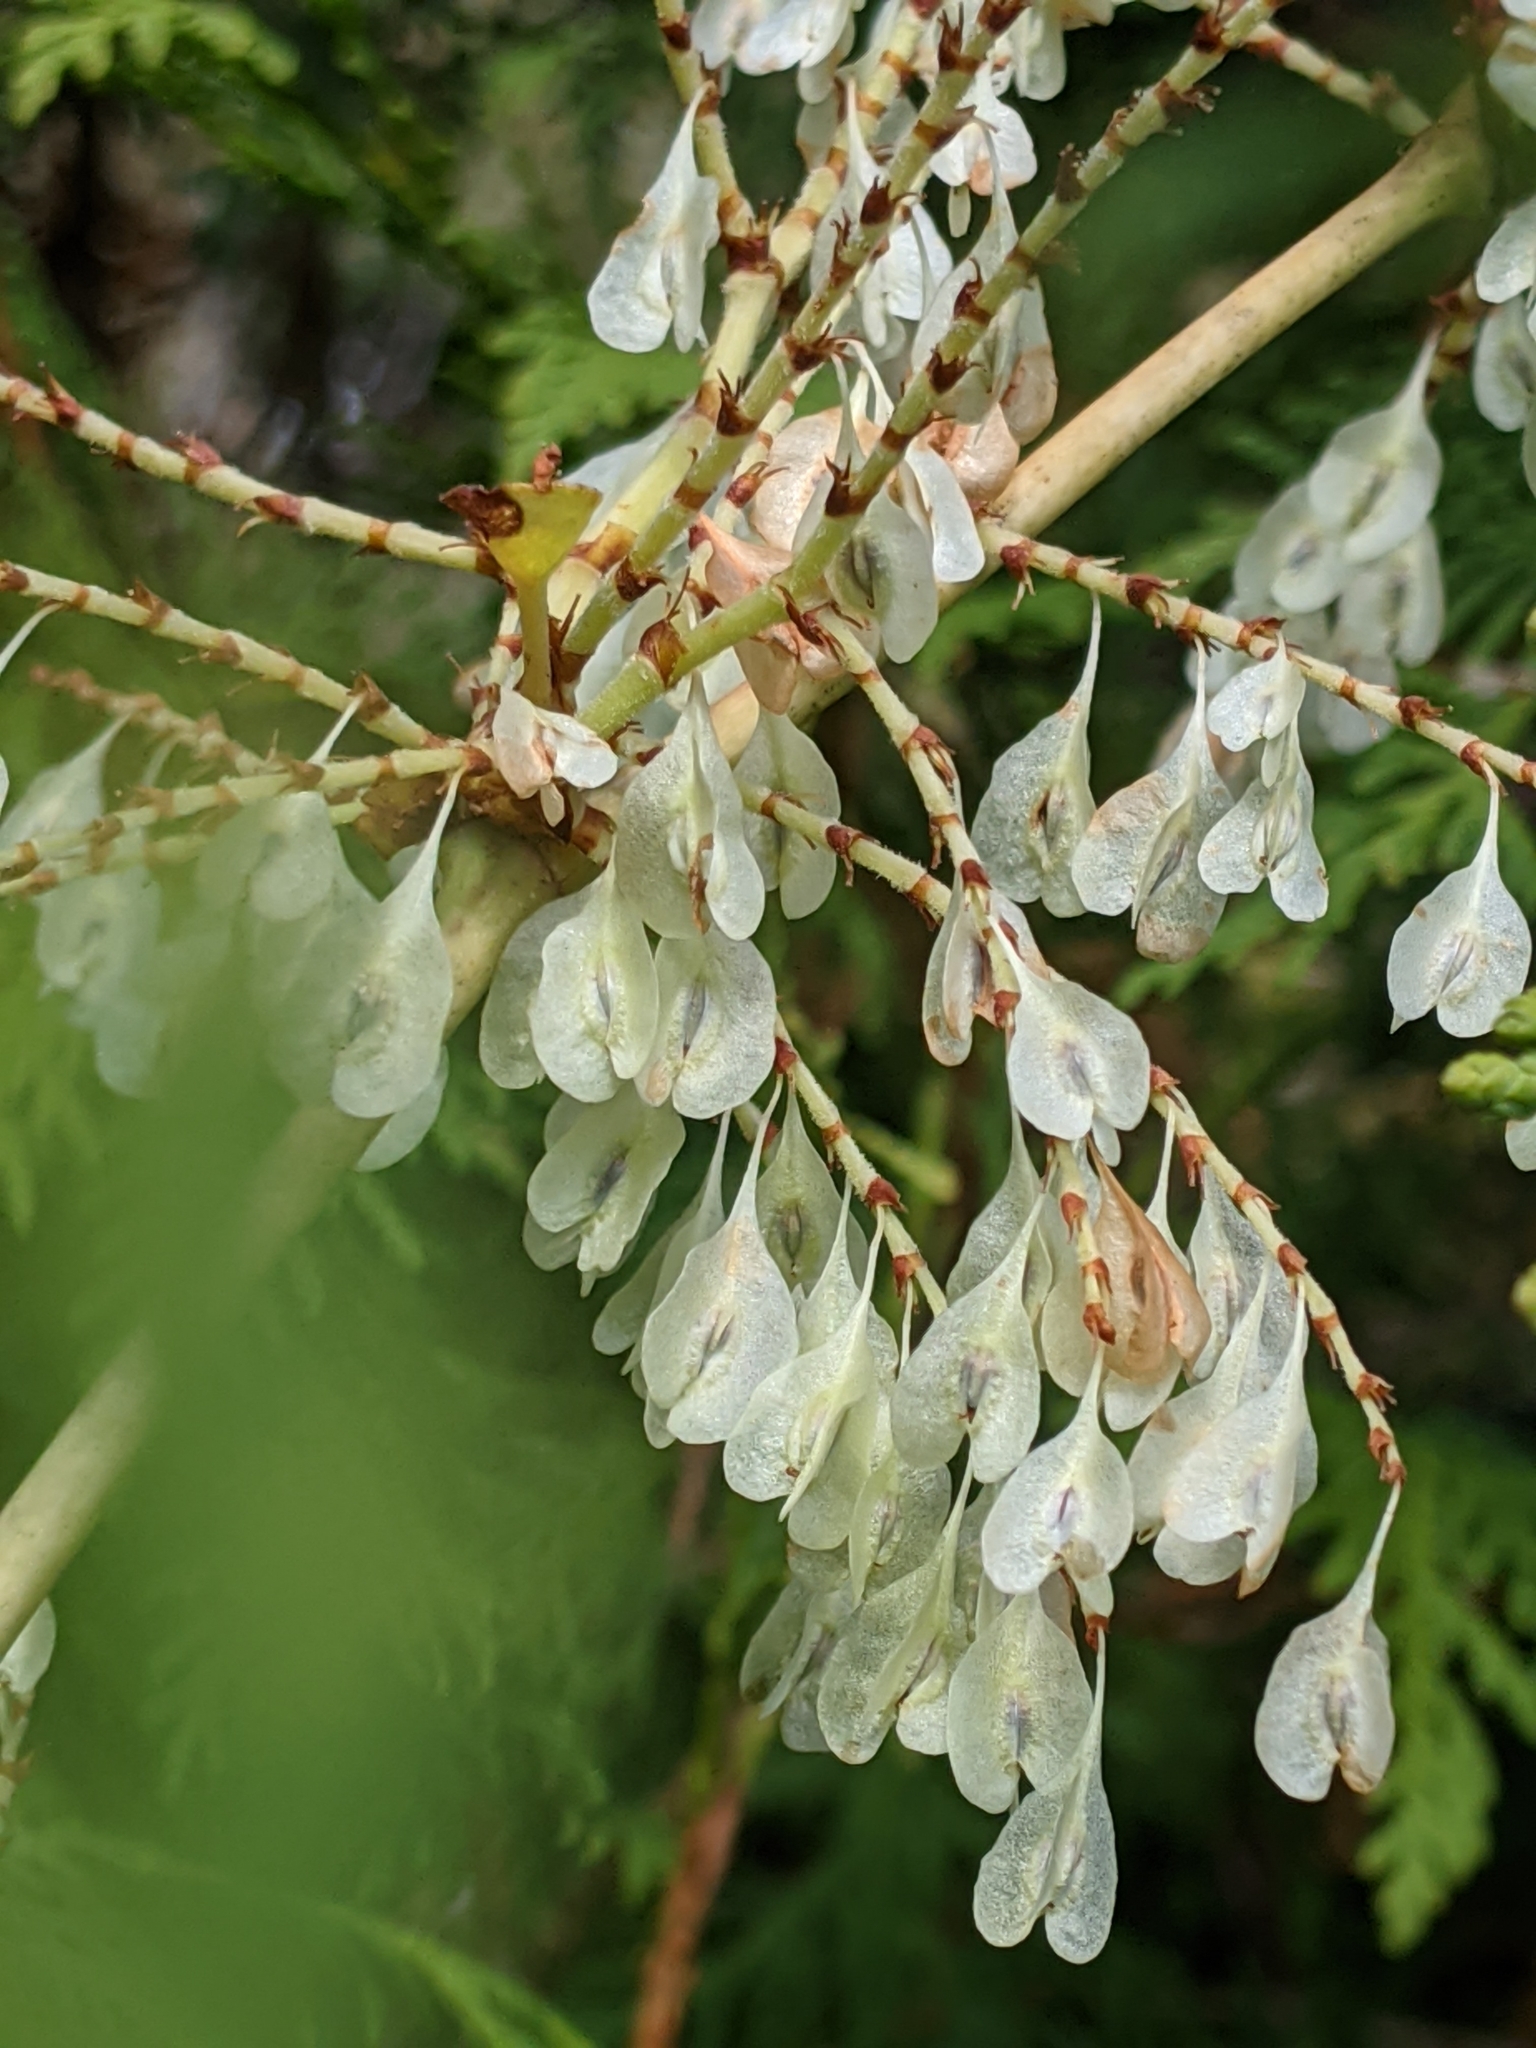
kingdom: Plantae
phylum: Tracheophyta
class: Magnoliopsida
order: Caryophyllales
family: Polygonaceae
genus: Reynoutria
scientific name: Reynoutria japonica
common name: Japanese knotweed
